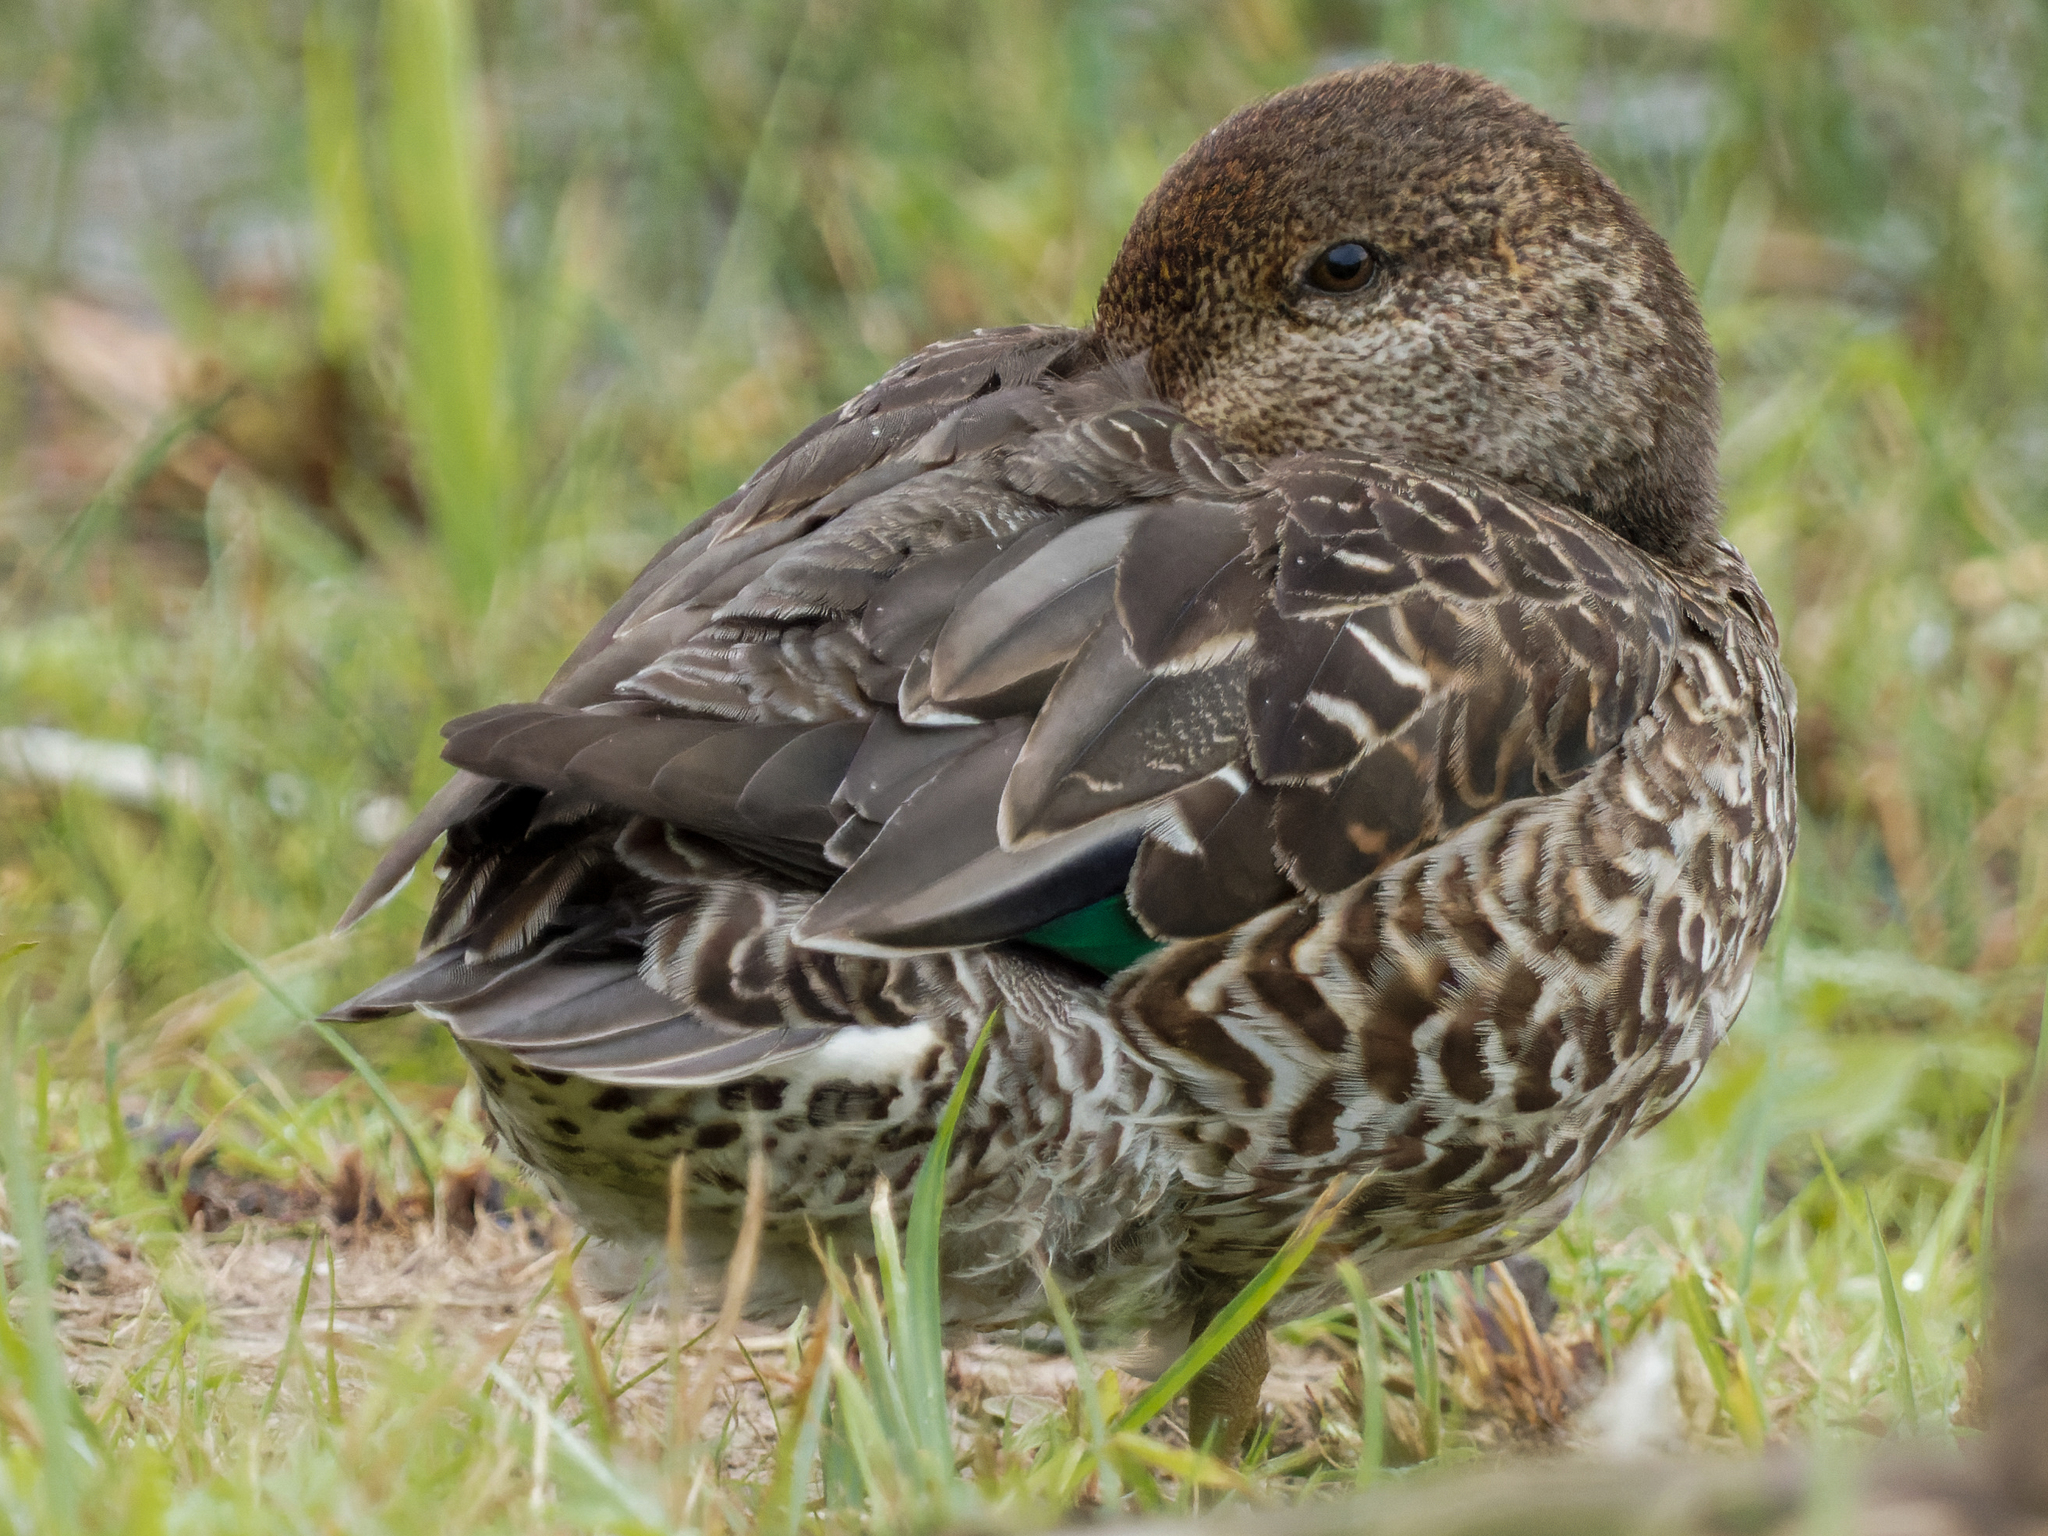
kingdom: Animalia
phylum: Chordata
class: Aves
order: Anseriformes
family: Anatidae
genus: Anas
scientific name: Anas crecca
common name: Eurasian teal
